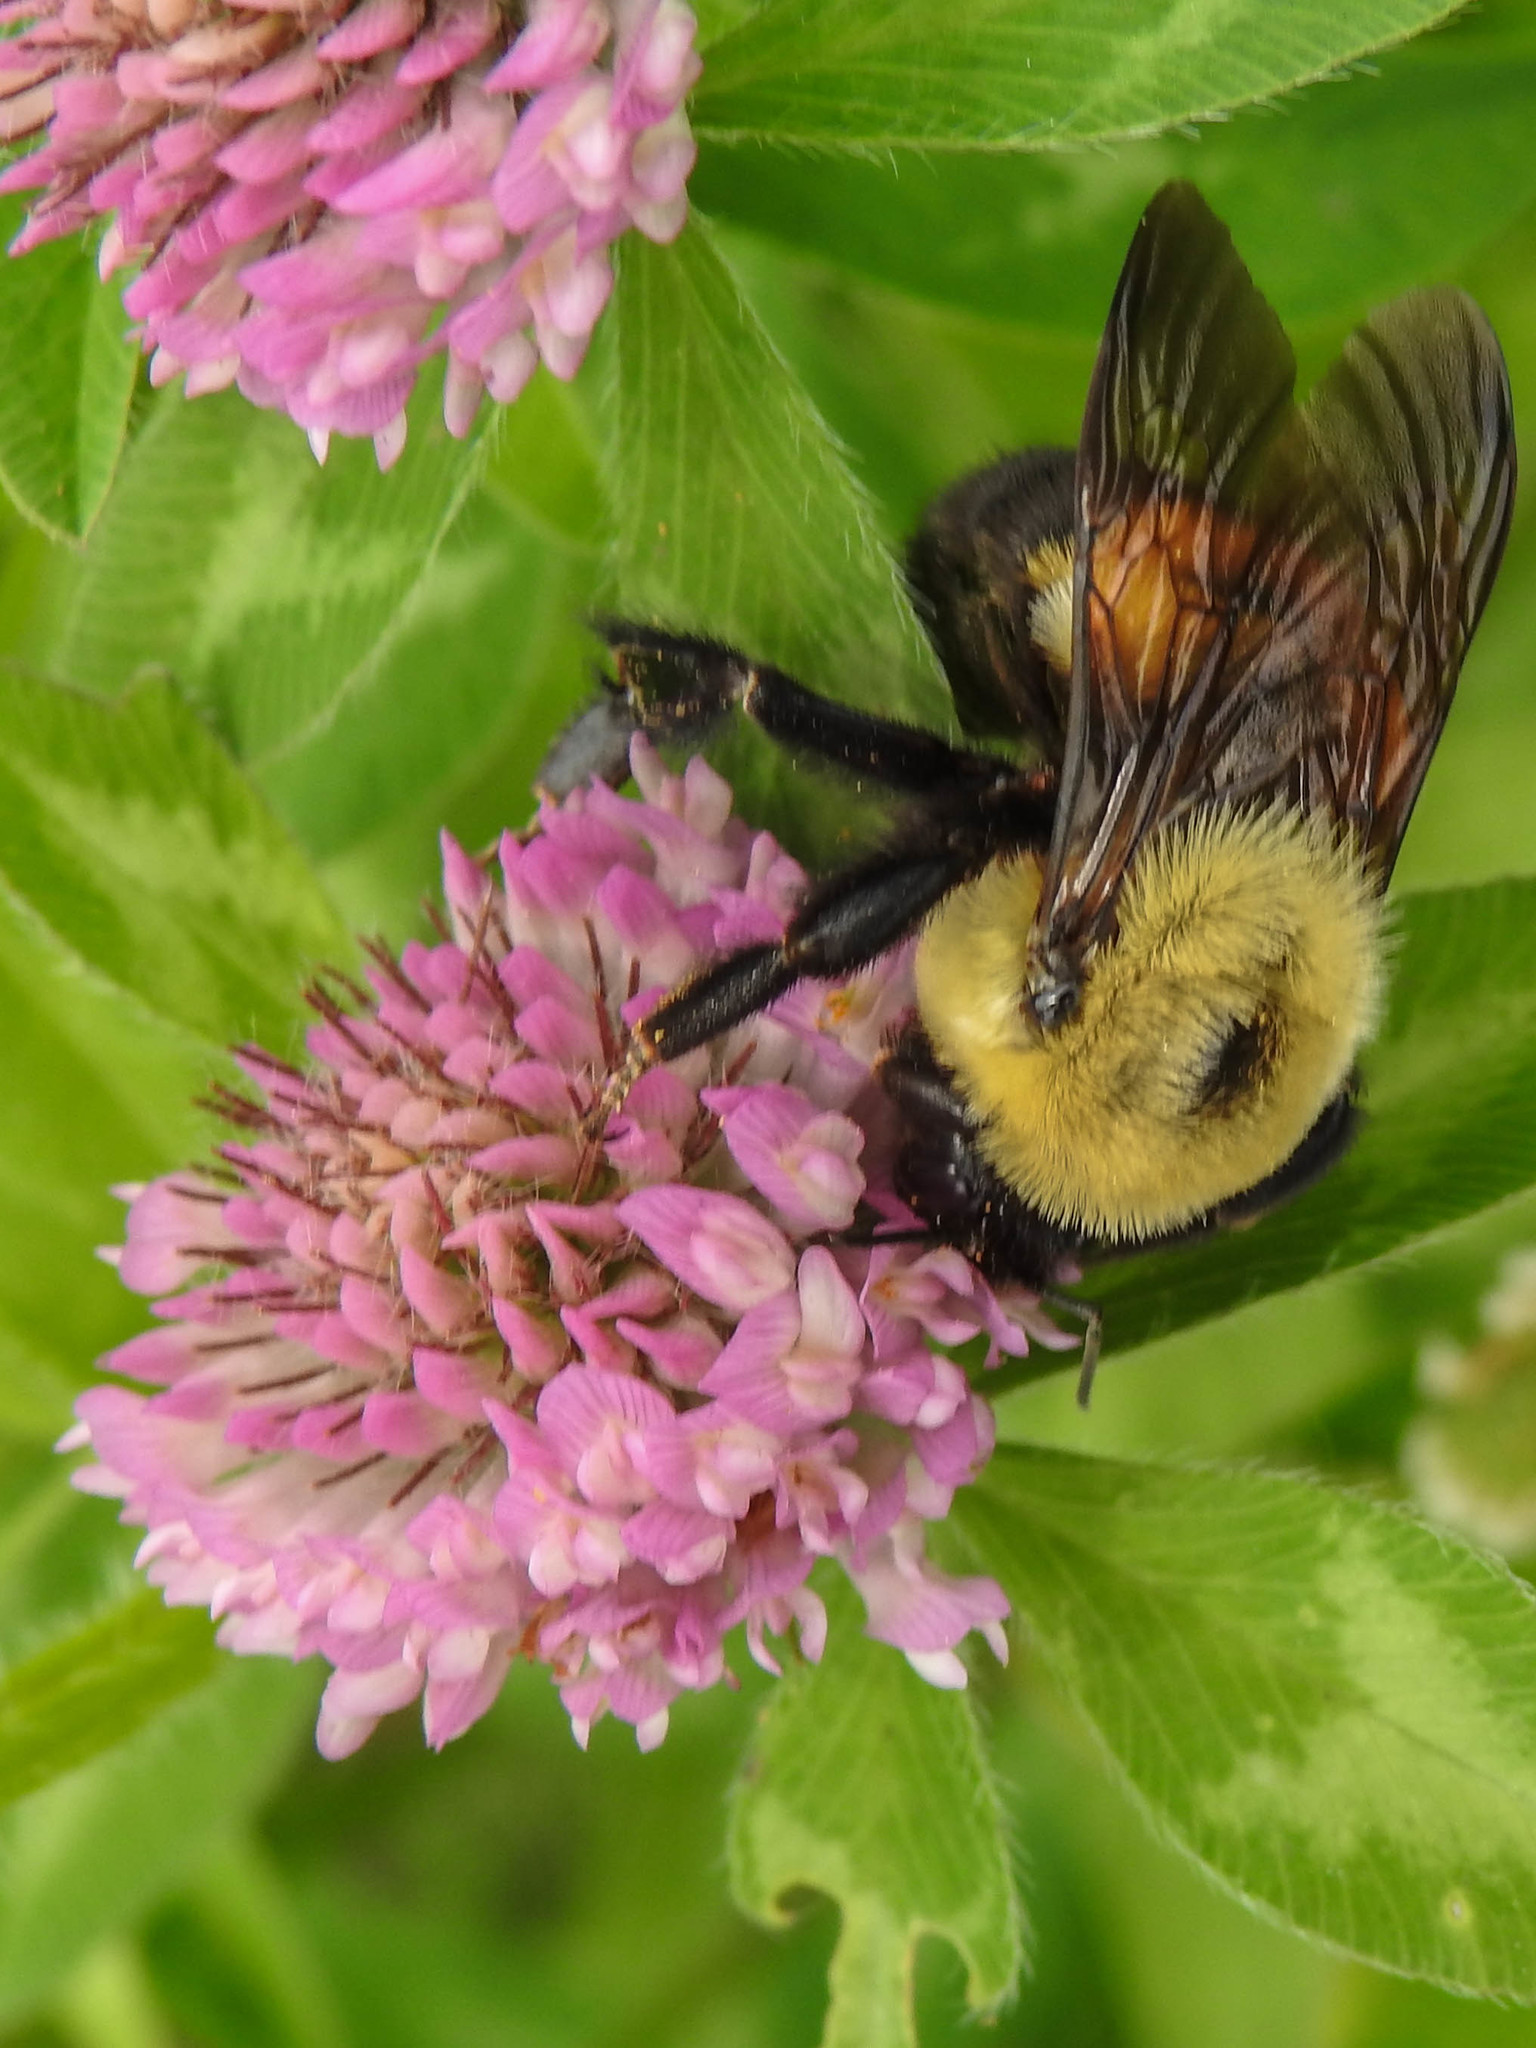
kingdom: Animalia
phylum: Arthropoda
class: Insecta
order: Hymenoptera
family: Apidae
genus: Bombus
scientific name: Bombus griseocollis
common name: Brown-belted bumble bee
